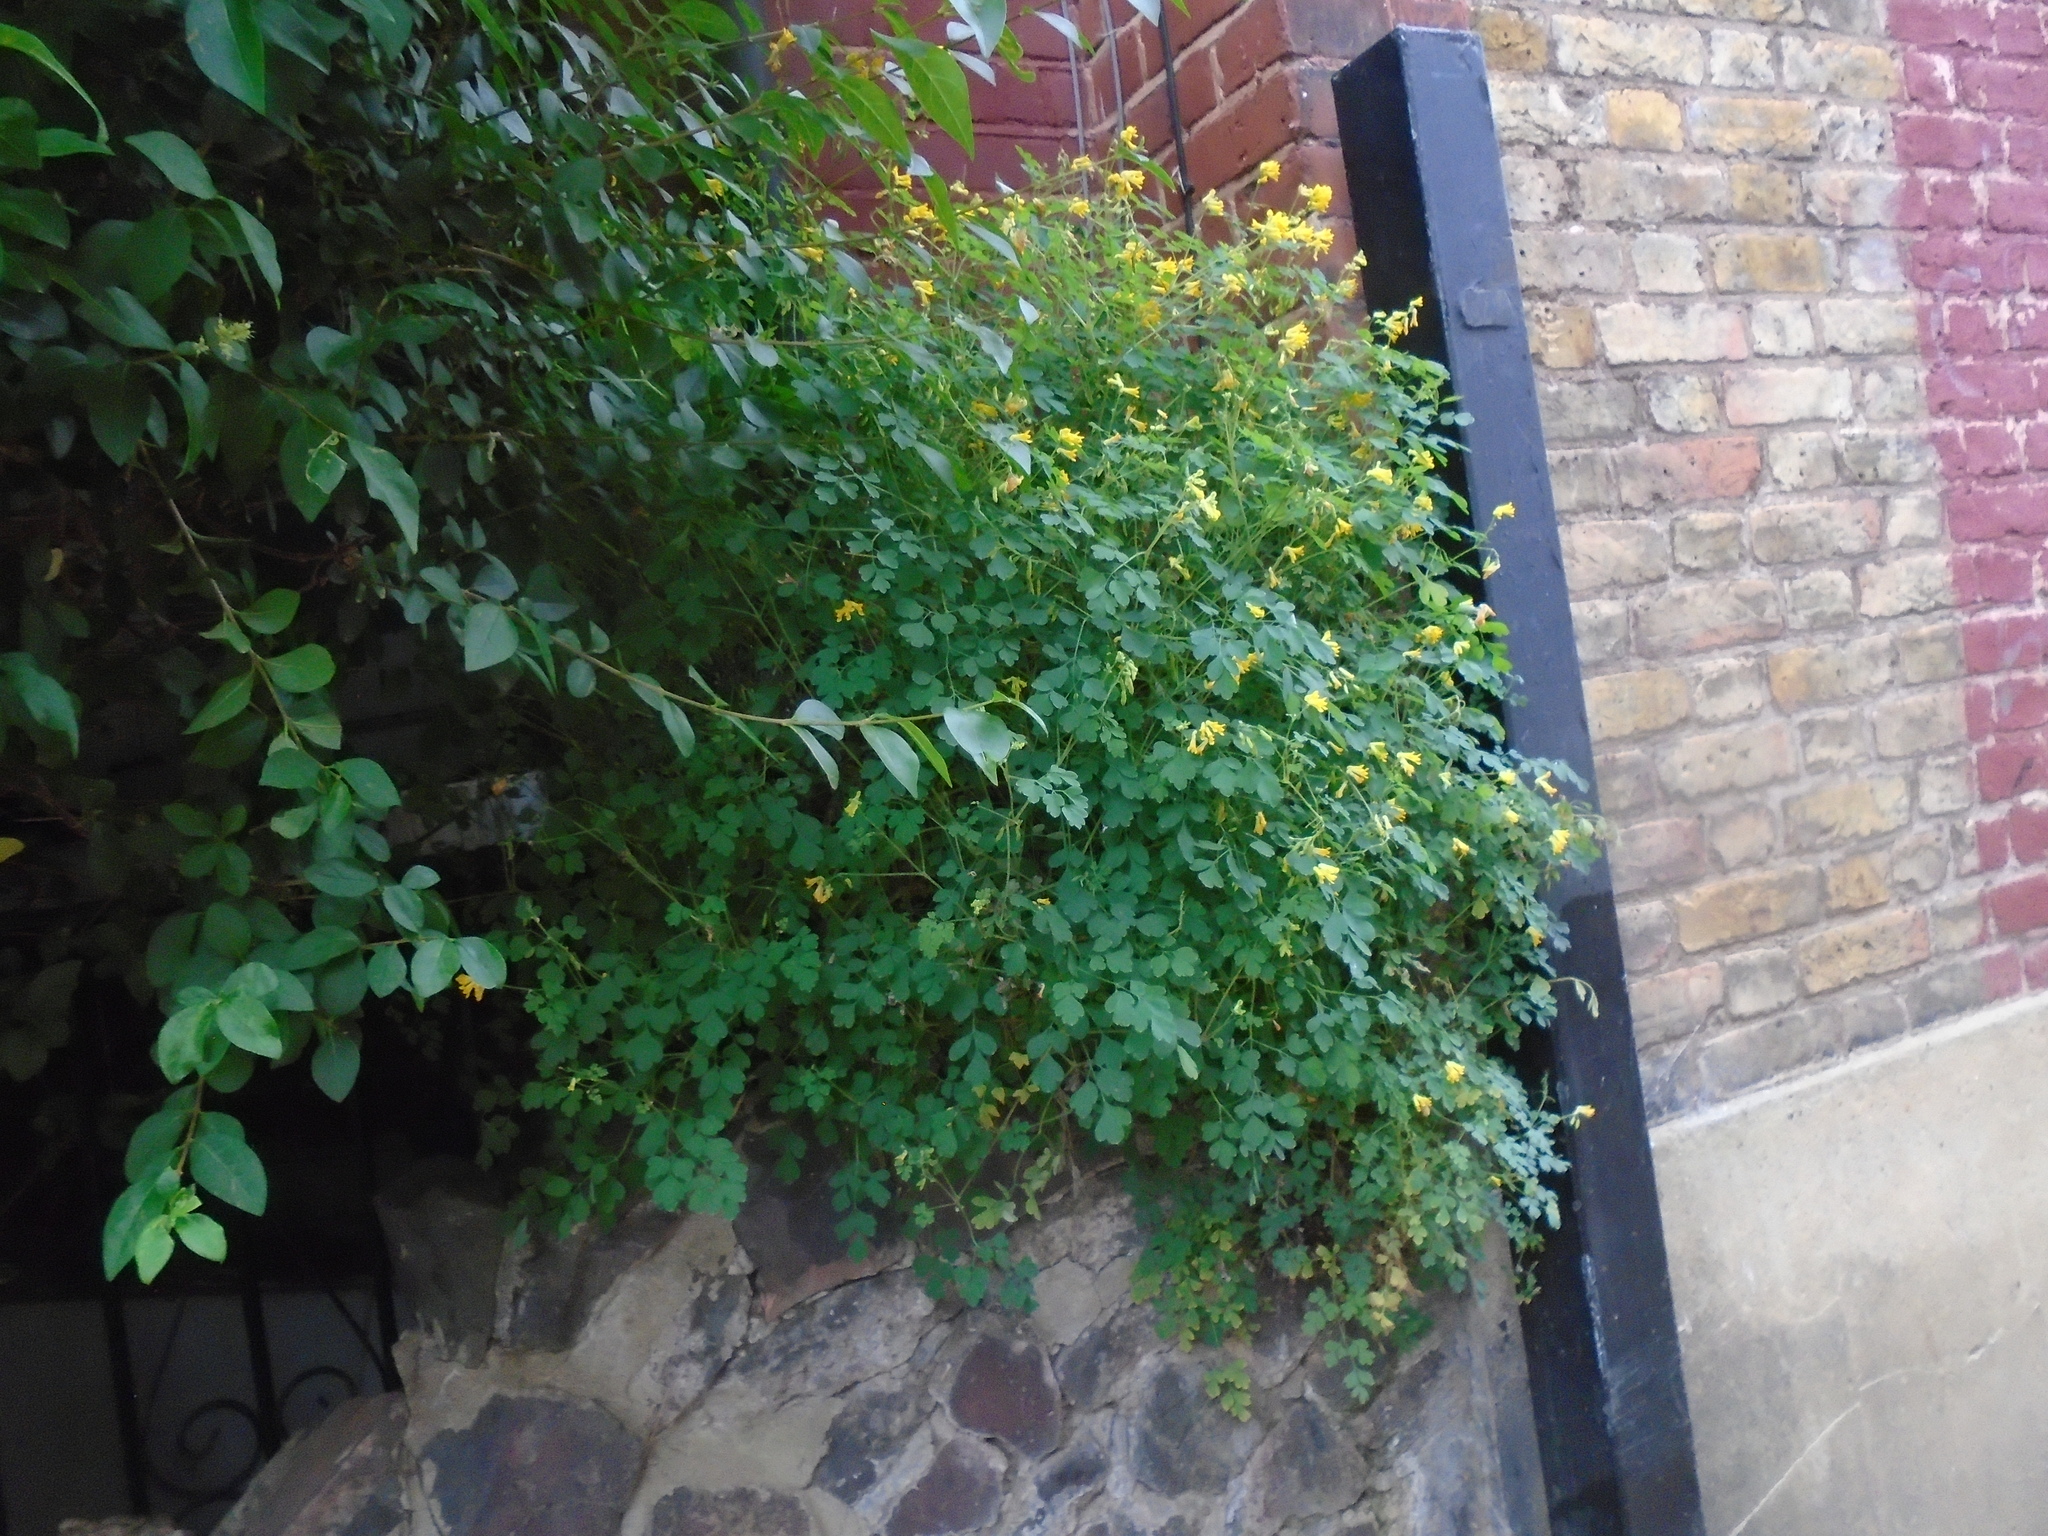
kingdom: Plantae
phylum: Tracheophyta
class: Magnoliopsida
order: Ranunculales
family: Papaveraceae
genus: Pseudofumaria
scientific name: Pseudofumaria lutea
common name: Yellow corydalis
